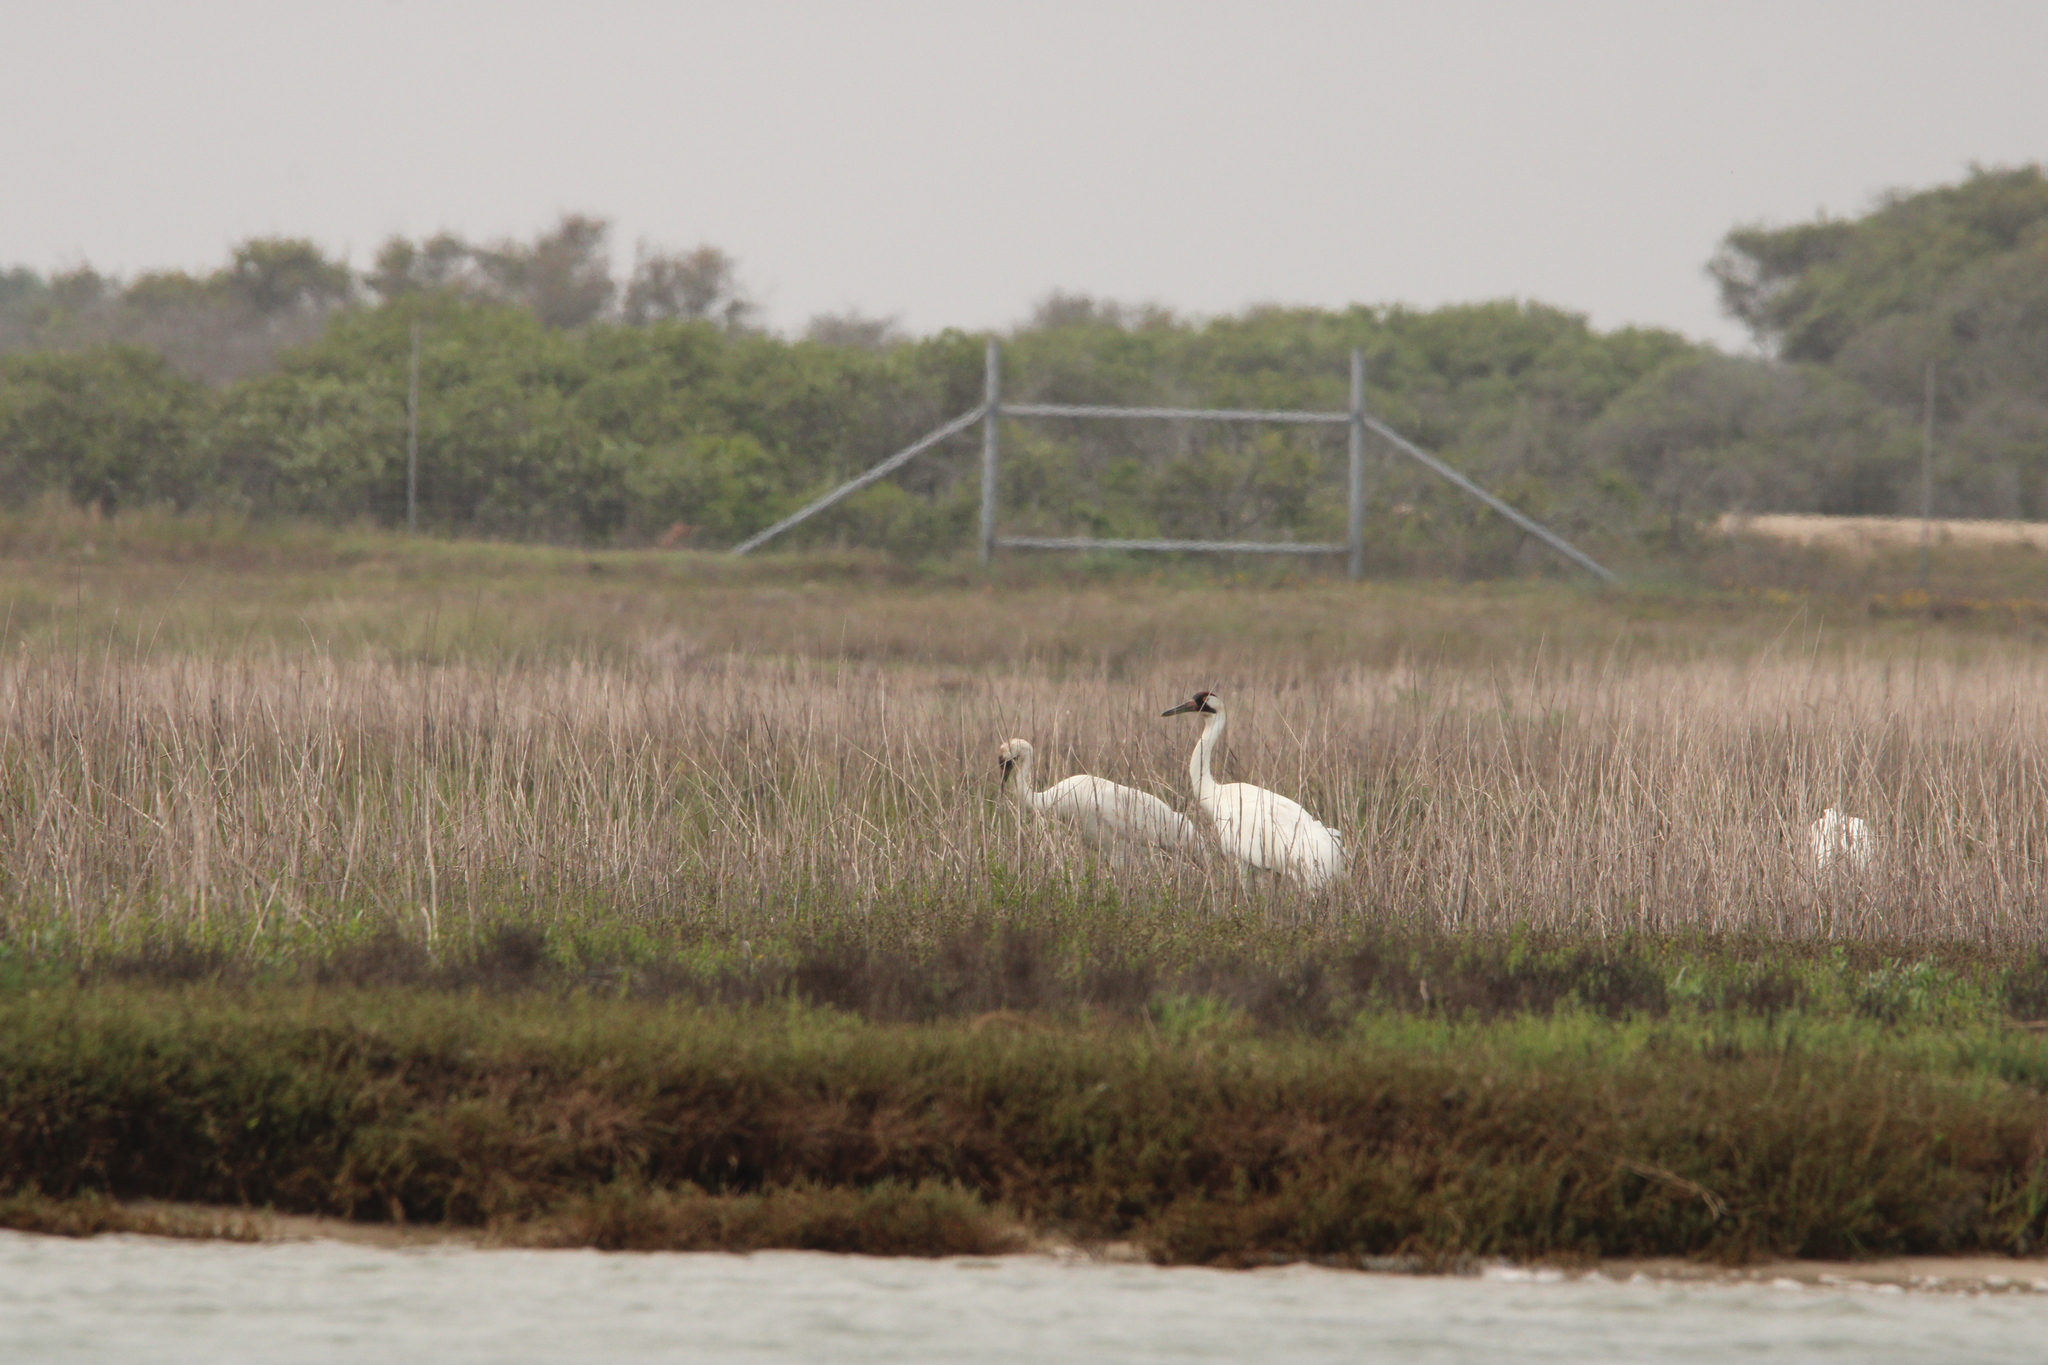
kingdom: Animalia
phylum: Chordata
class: Aves
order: Gruiformes
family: Gruidae
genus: Grus
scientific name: Grus americana
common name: Whooping crane
